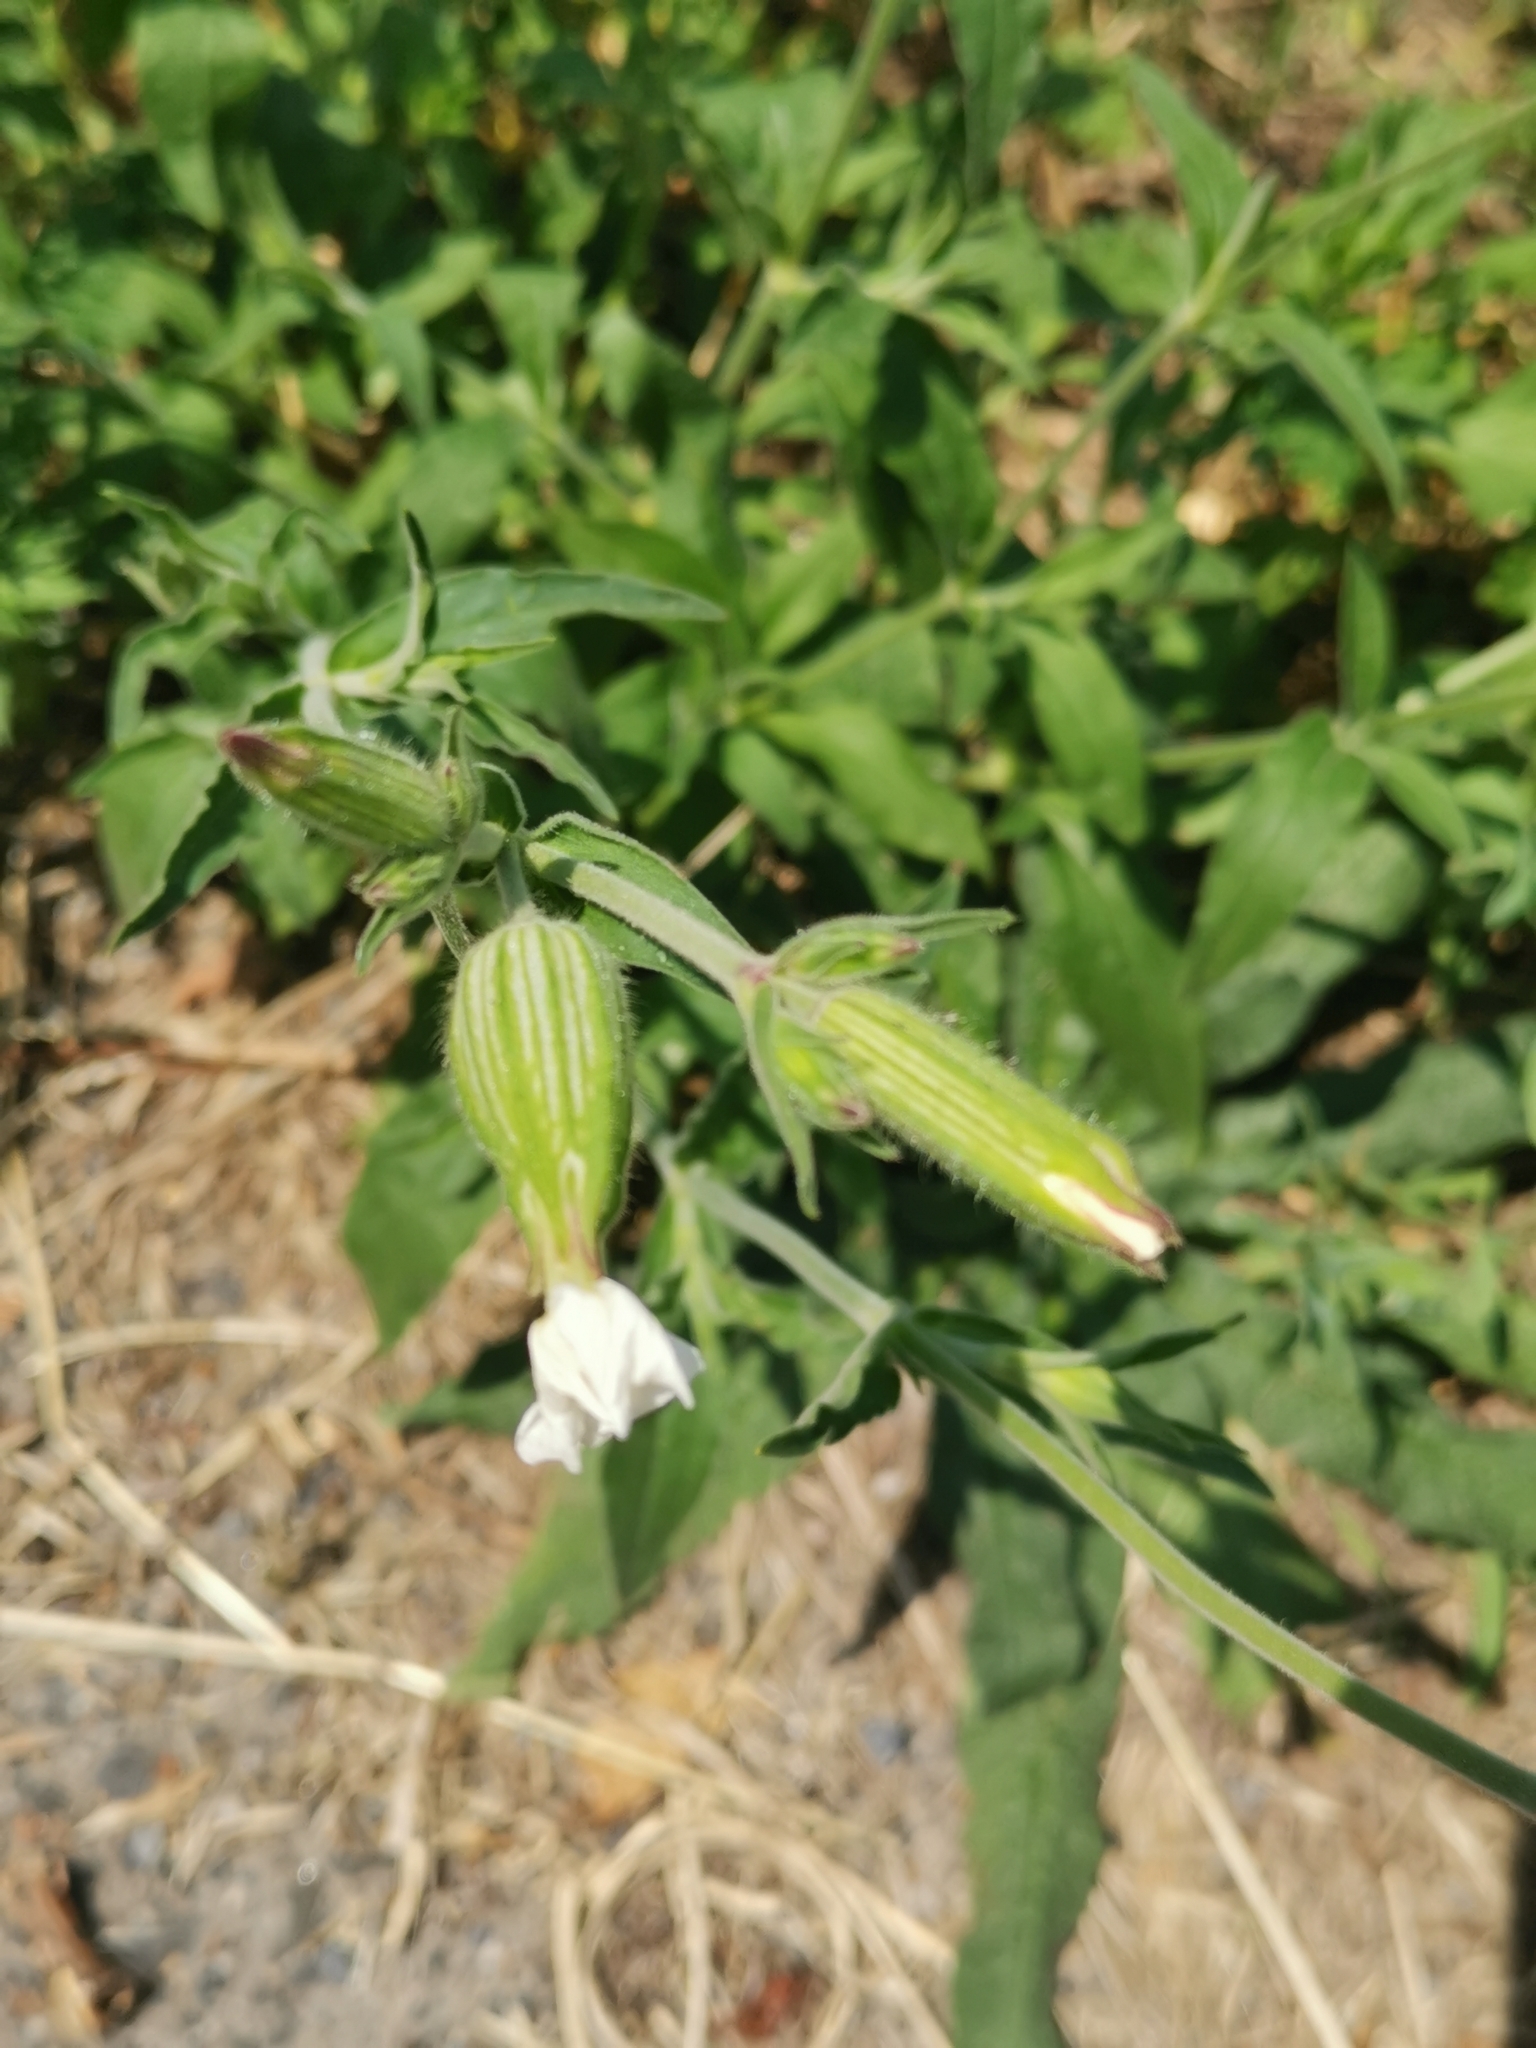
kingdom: Plantae
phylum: Tracheophyta
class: Magnoliopsida
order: Caryophyllales
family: Caryophyllaceae
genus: Silene
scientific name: Silene latifolia
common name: White campion
